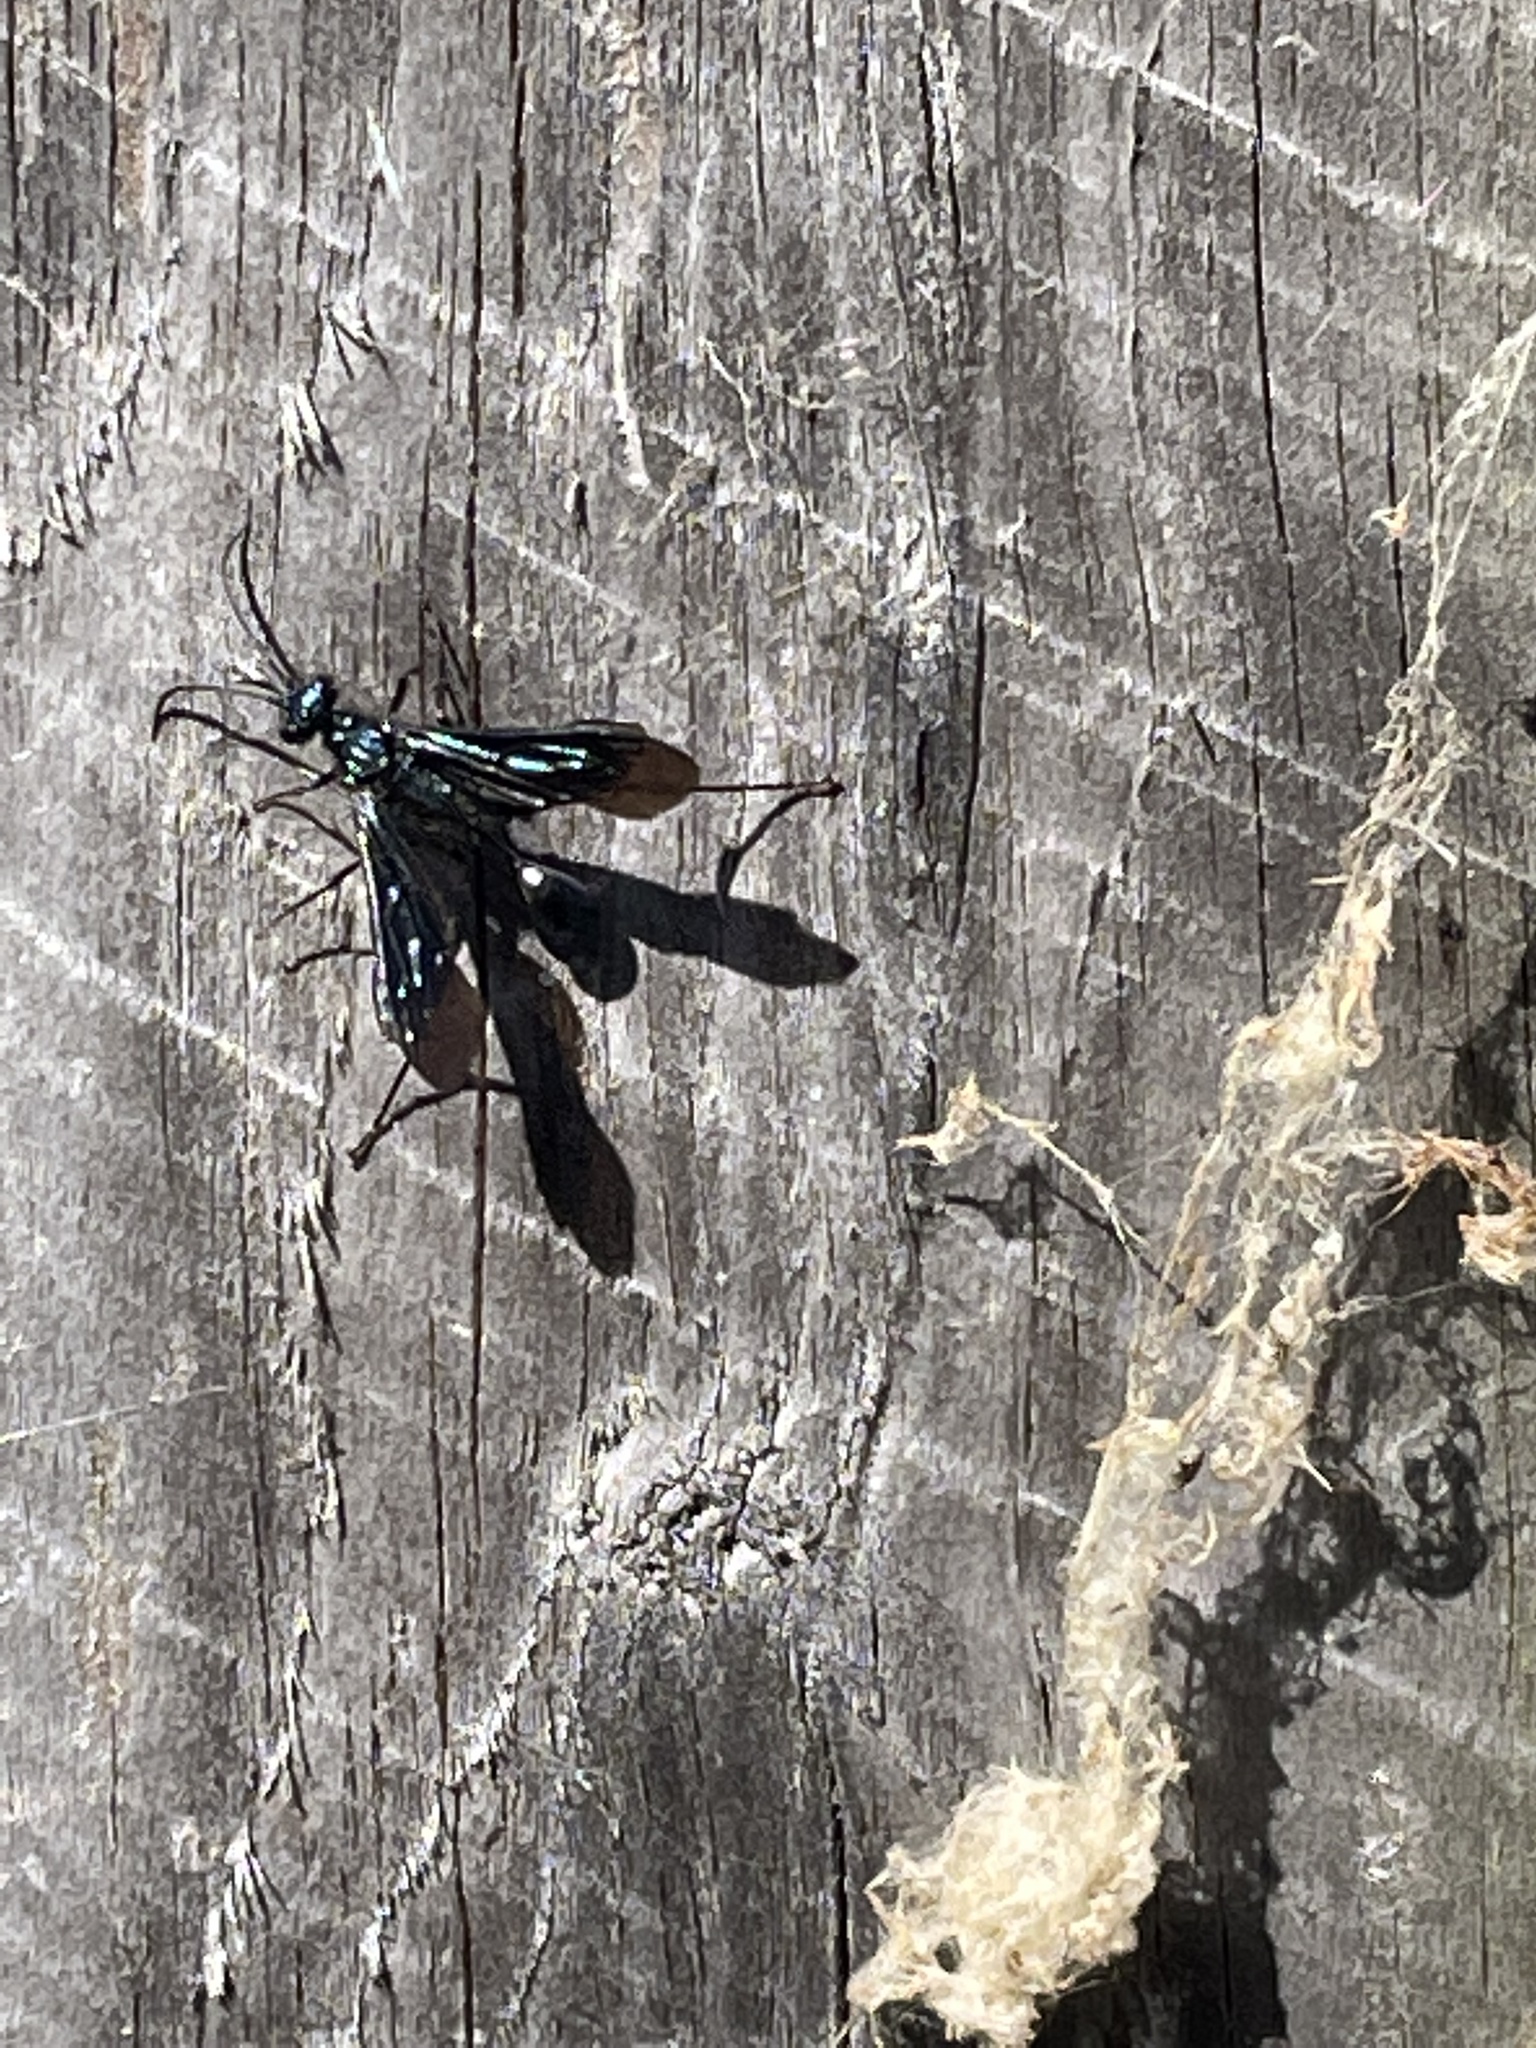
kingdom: Animalia
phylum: Arthropoda
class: Insecta
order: Hymenoptera
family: Sphecidae
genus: Chalybion
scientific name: Chalybion californicum
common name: Mud dauber
